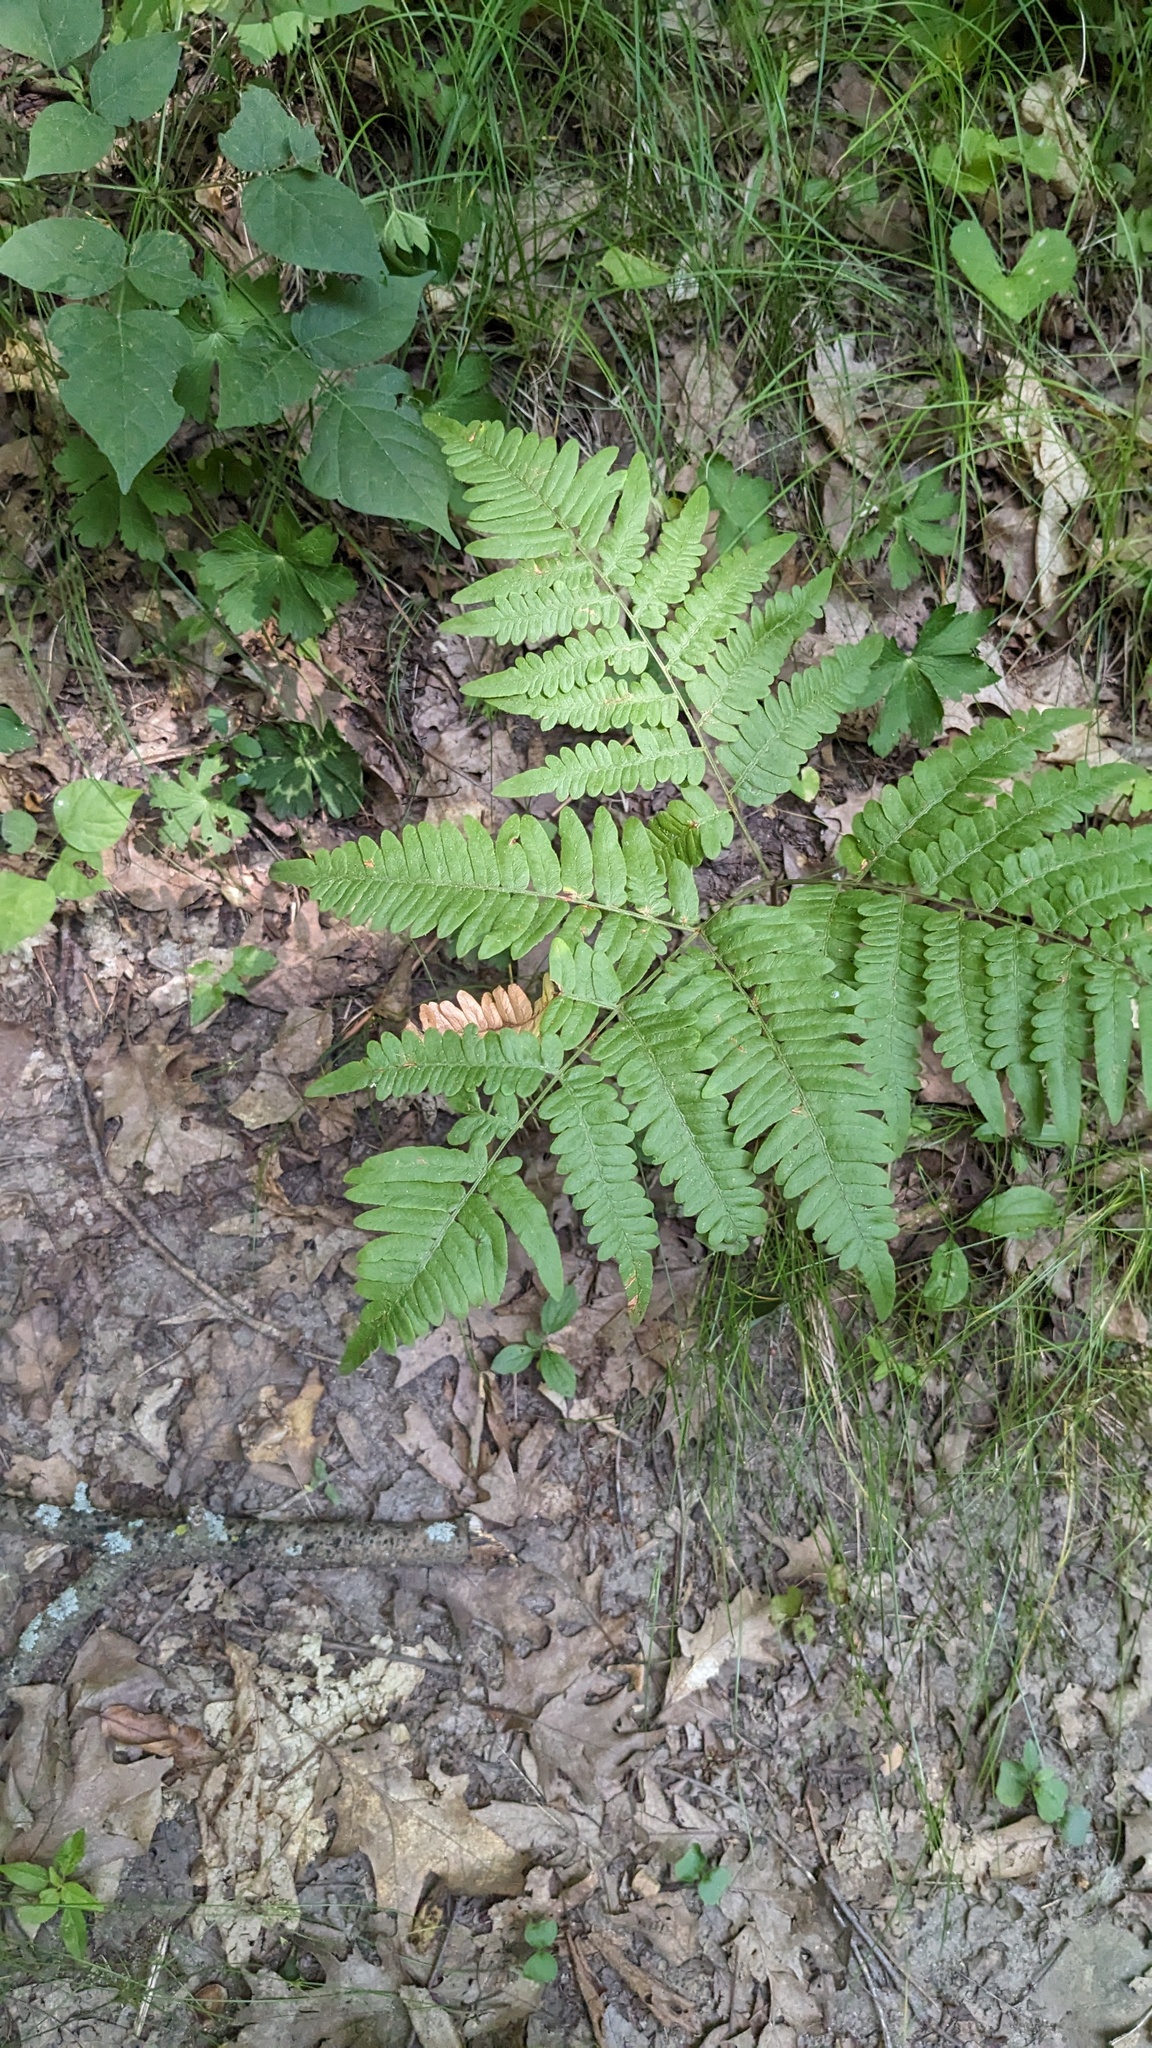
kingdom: Plantae
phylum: Tracheophyta
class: Polypodiopsida
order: Polypodiales
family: Dennstaedtiaceae
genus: Pteridium
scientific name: Pteridium aquilinum
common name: Bracken
